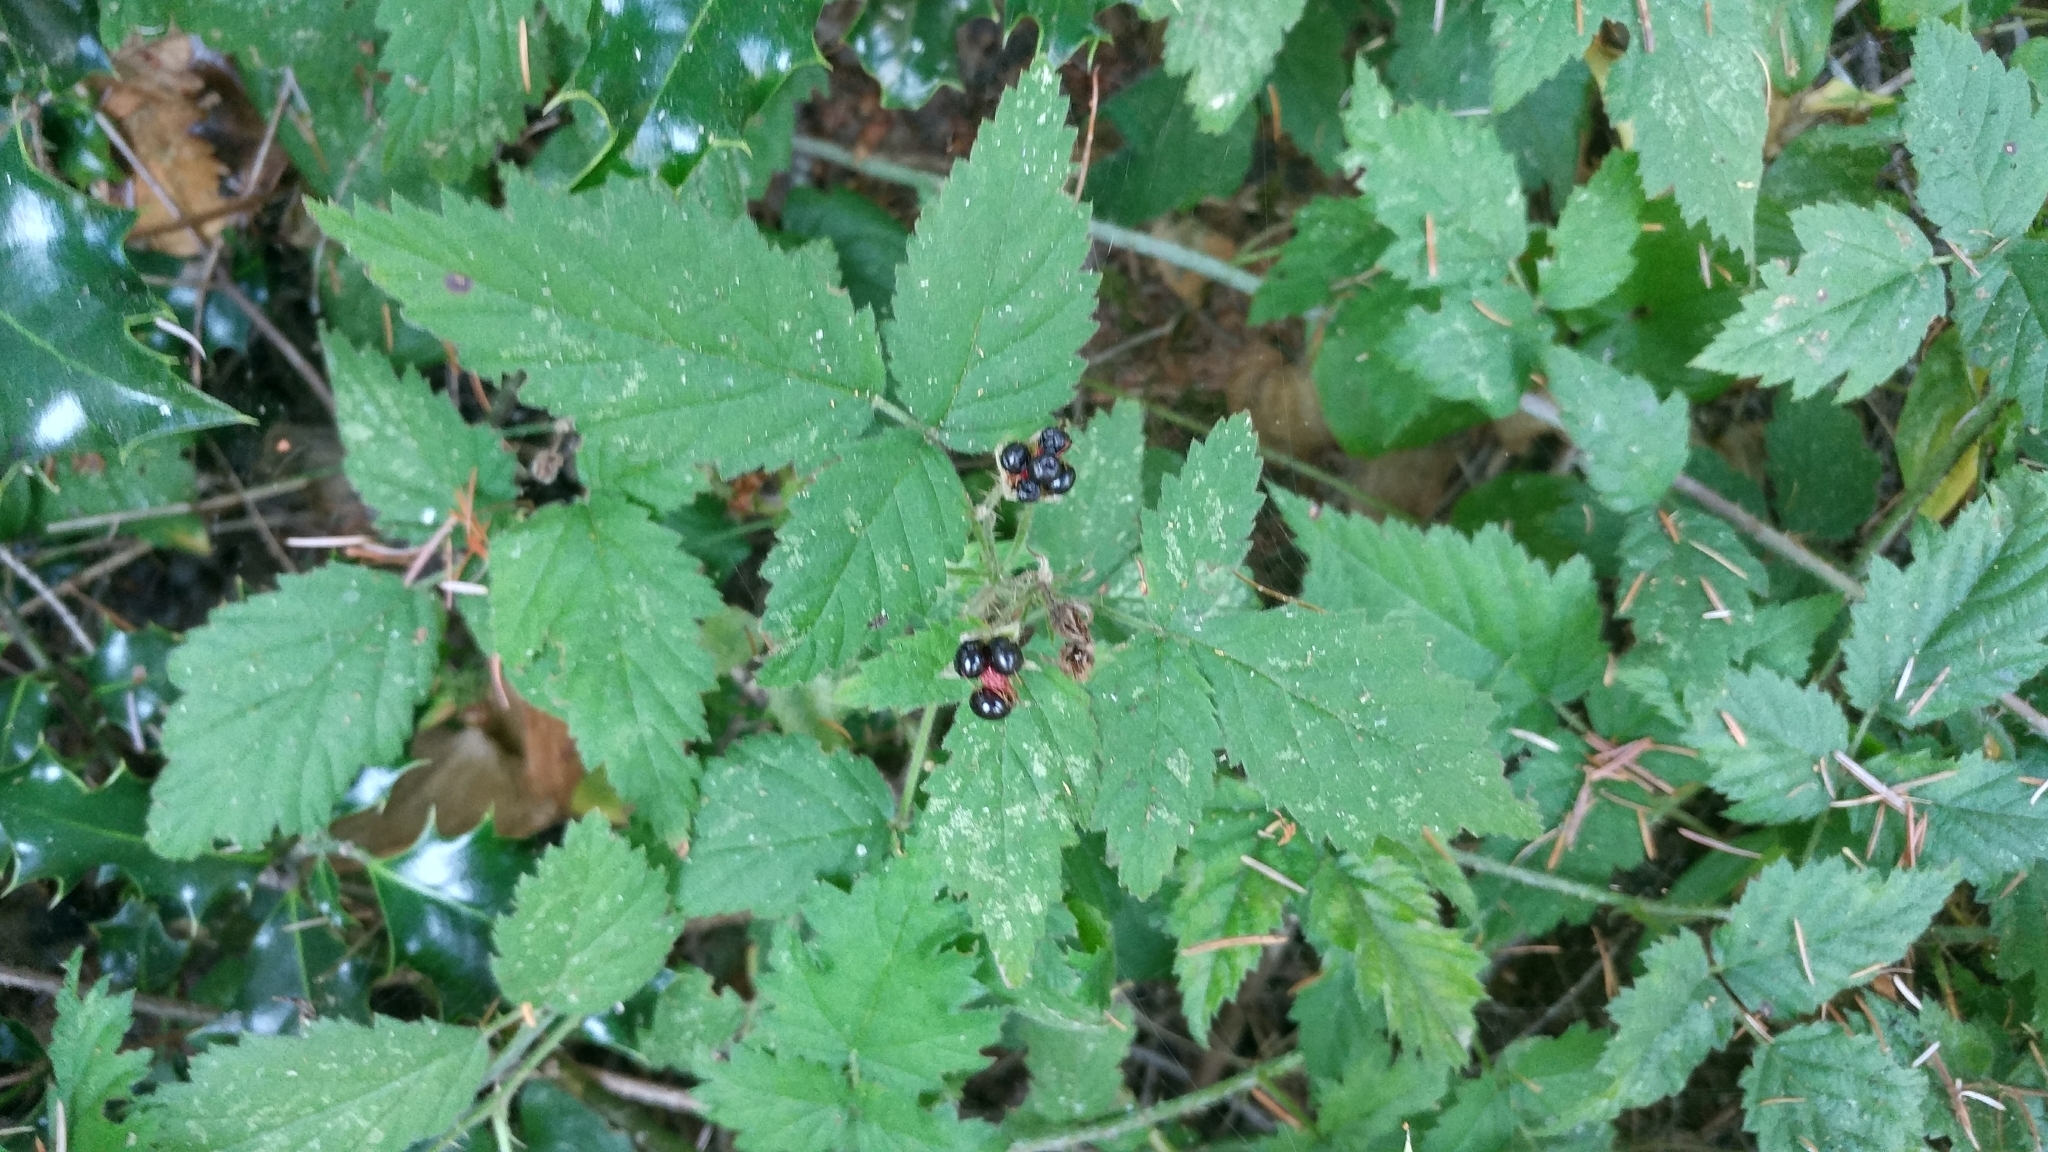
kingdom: Plantae
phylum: Tracheophyta
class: Magnoliopsida
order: Rosales
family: Rosaceae
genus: Rubus
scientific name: Rubus ursinus
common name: Pacific blackberry
